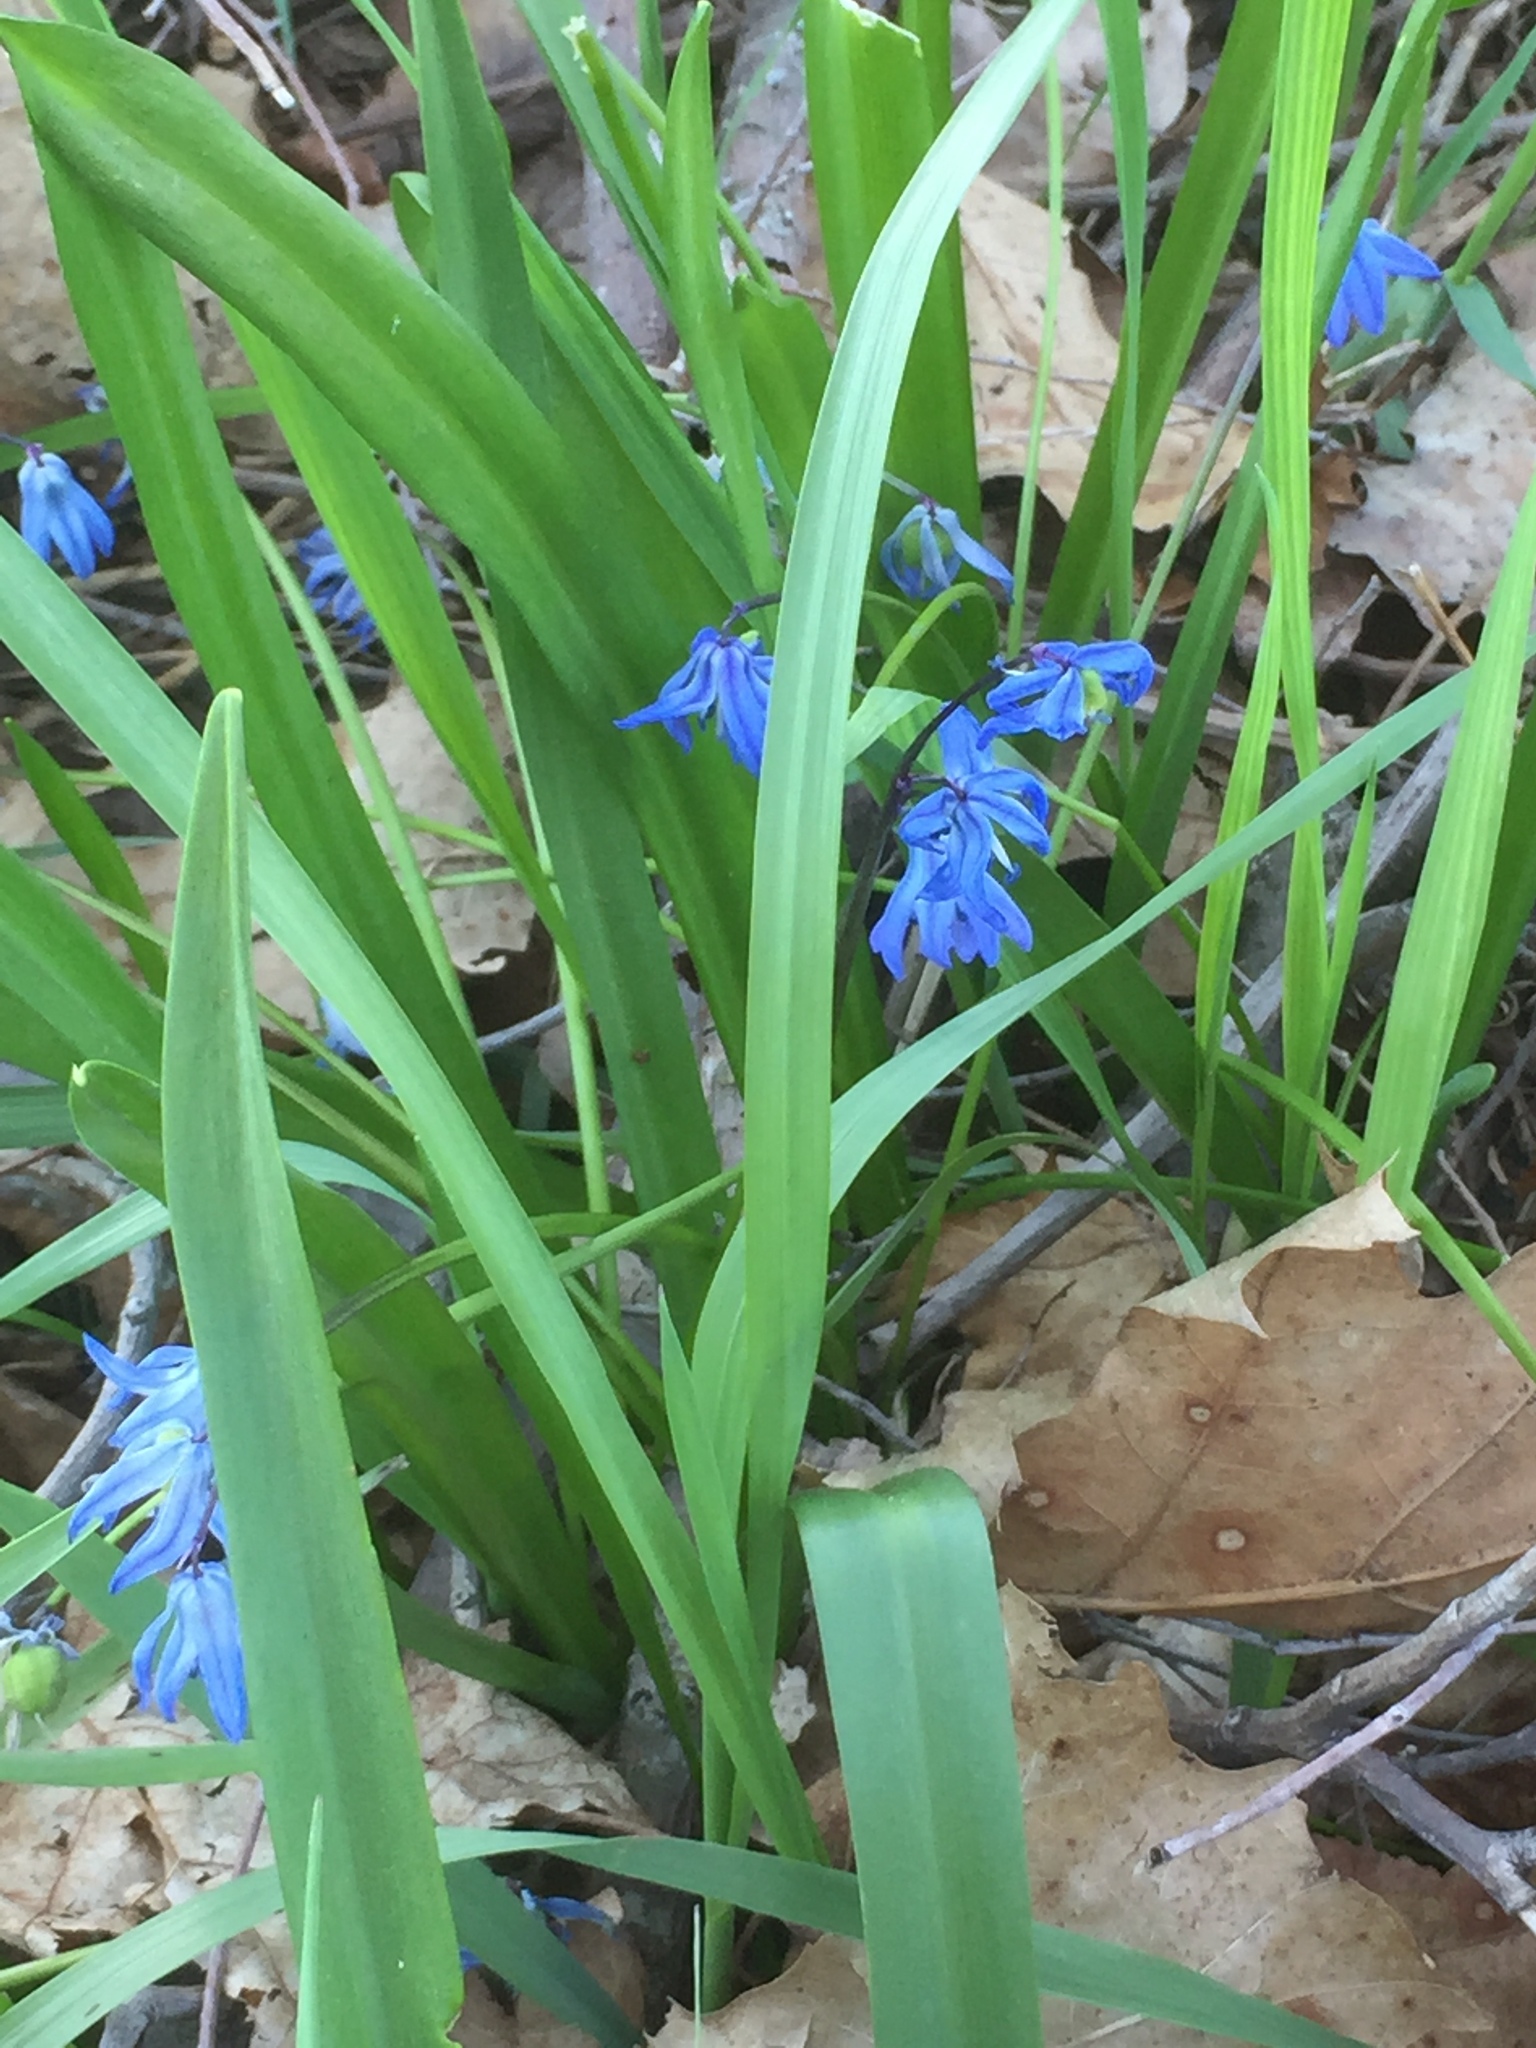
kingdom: Plantae
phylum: Tracheophyta
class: Liliopsida
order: Asparagales
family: Asparagaceae
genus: Scilla
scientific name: Scilla siberica
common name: Siberian squill
